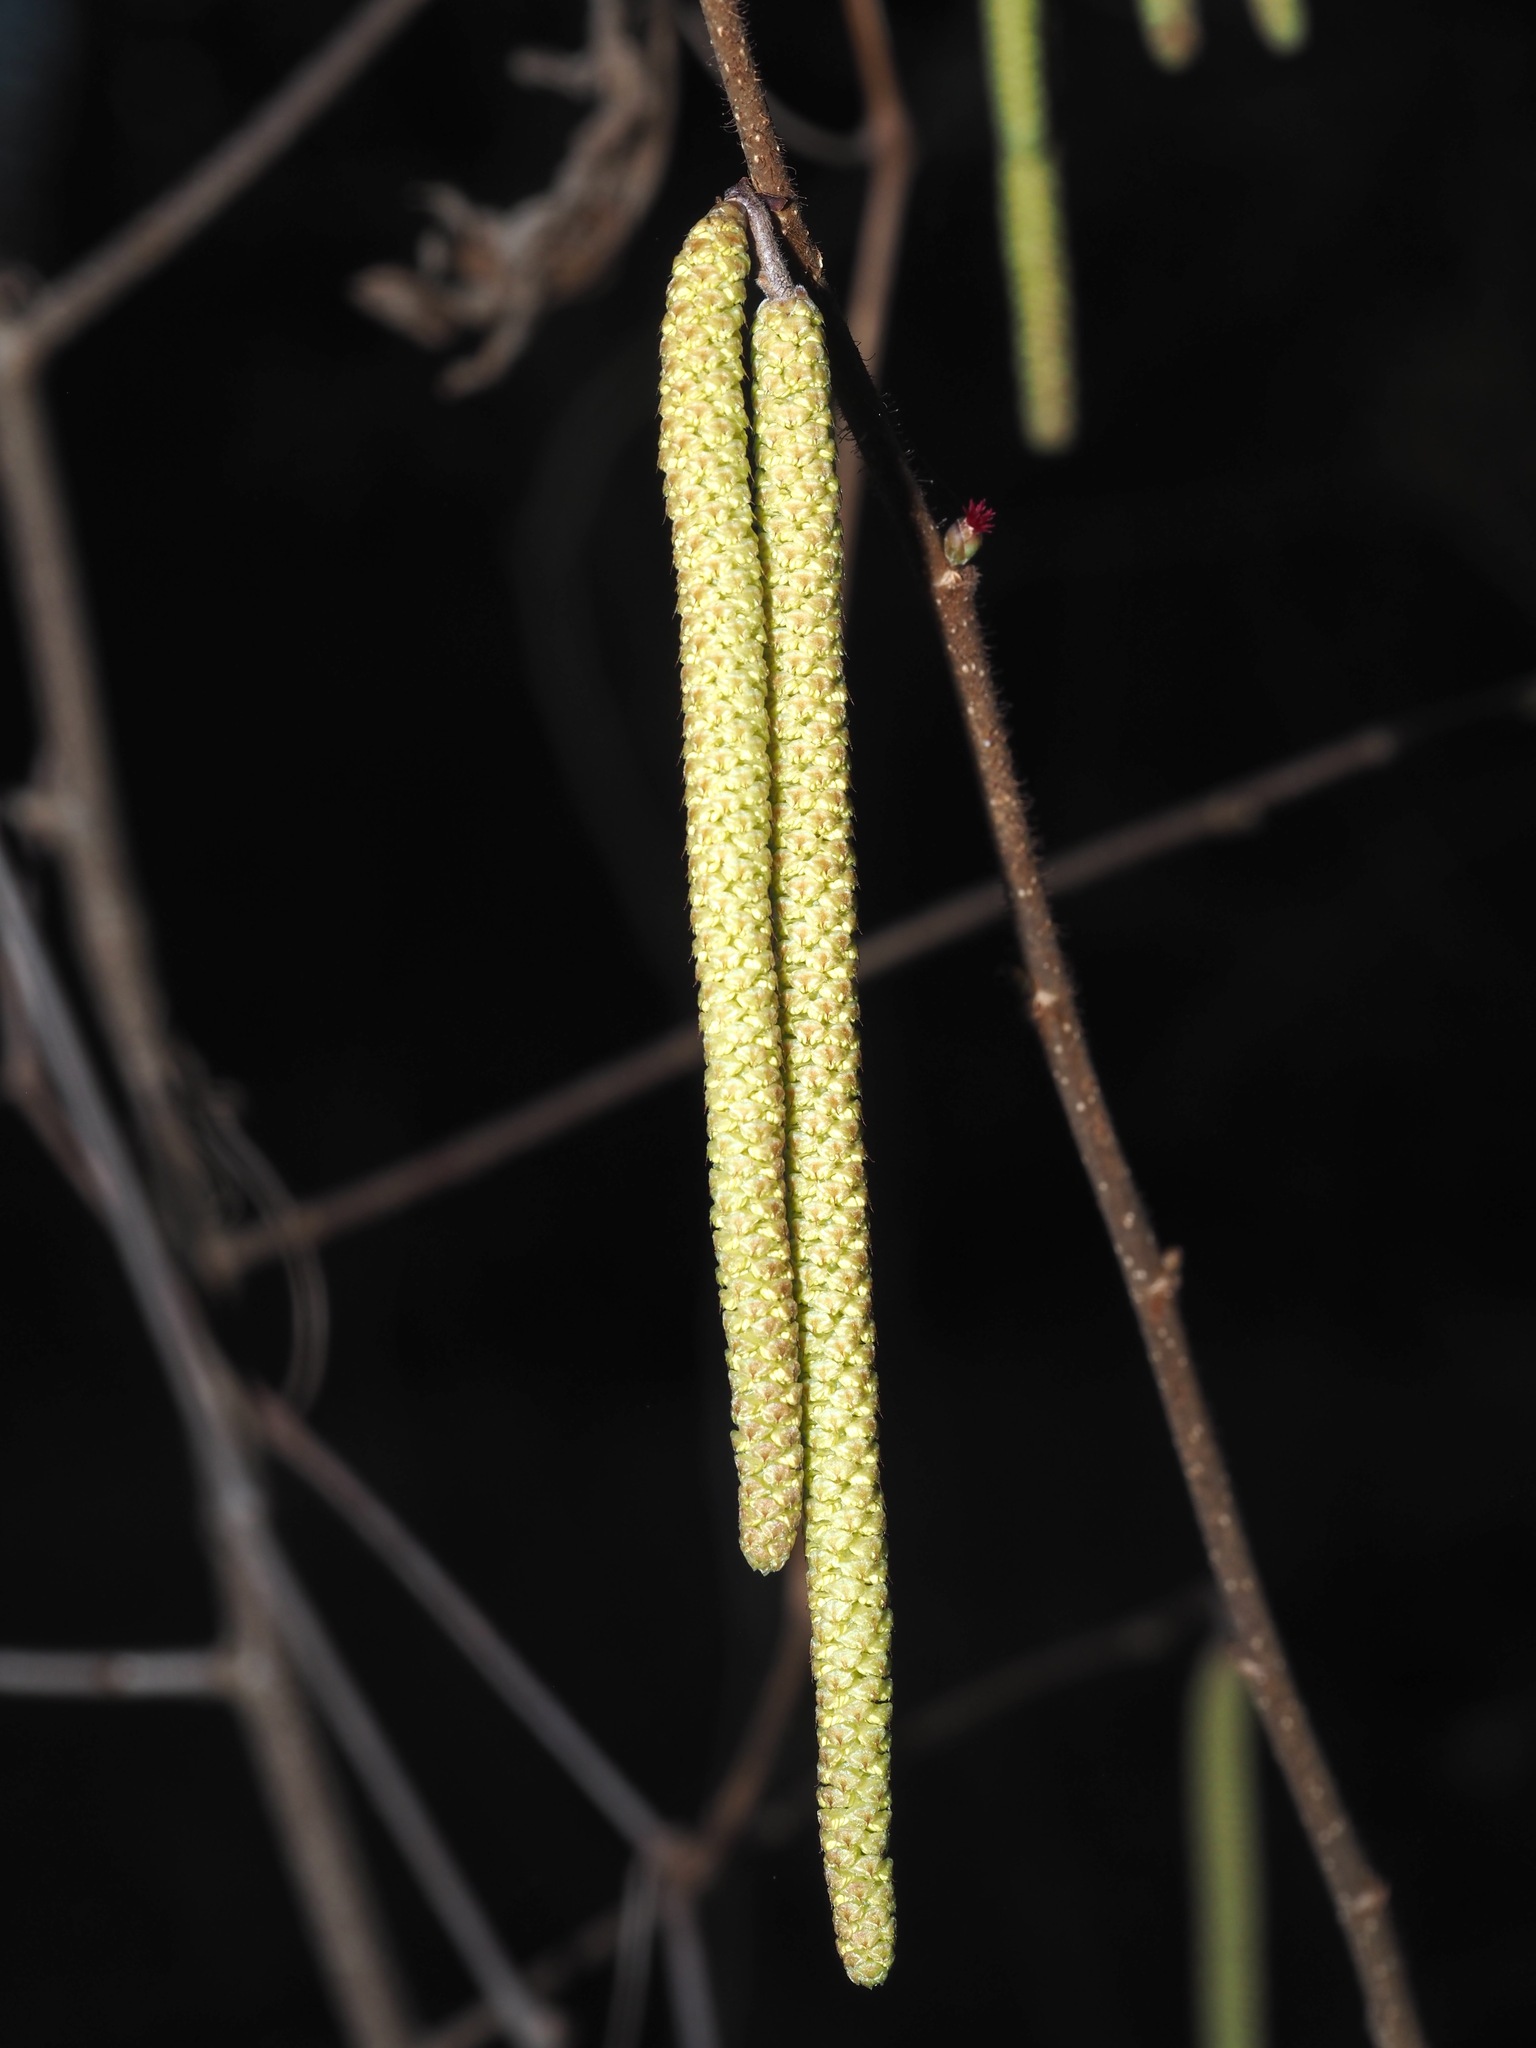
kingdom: Plantae
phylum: Tracheophyta
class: Magnoliopsida
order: Fagales
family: Betulaceae
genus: Corylus
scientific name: Corylus americana
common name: American hazel
